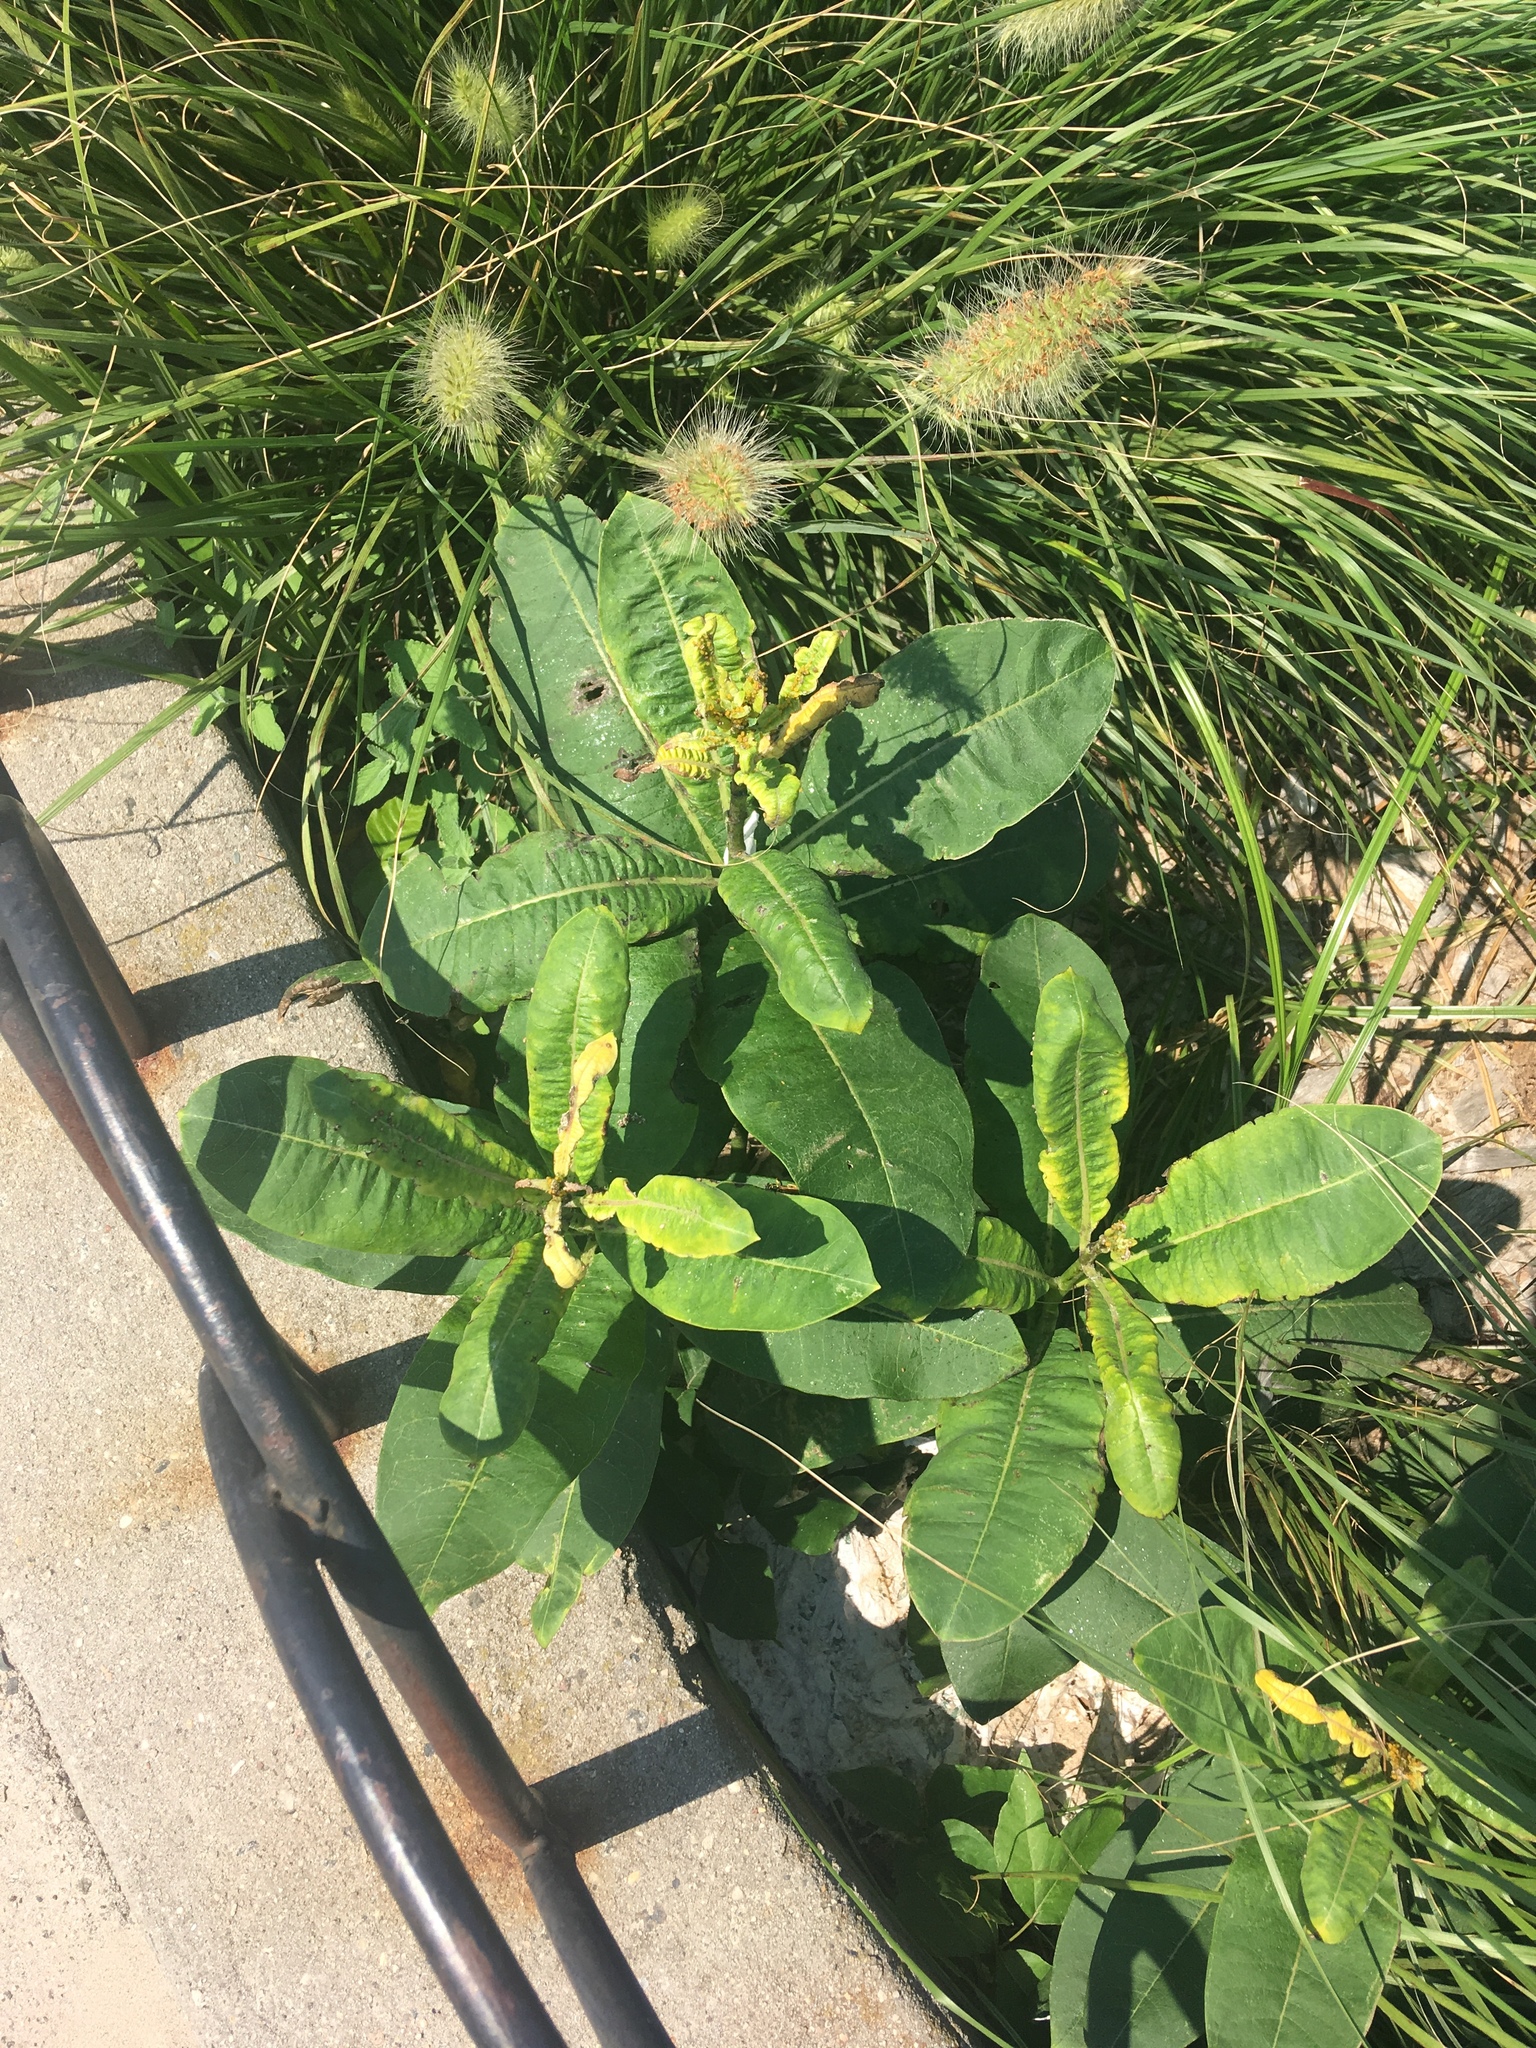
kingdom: Plantae
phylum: Tracheophyta
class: Magnoliopsida
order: Gentianales
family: Apocynaceae
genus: Asclepias
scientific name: Asclepias syriaca
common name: Common milkweed
